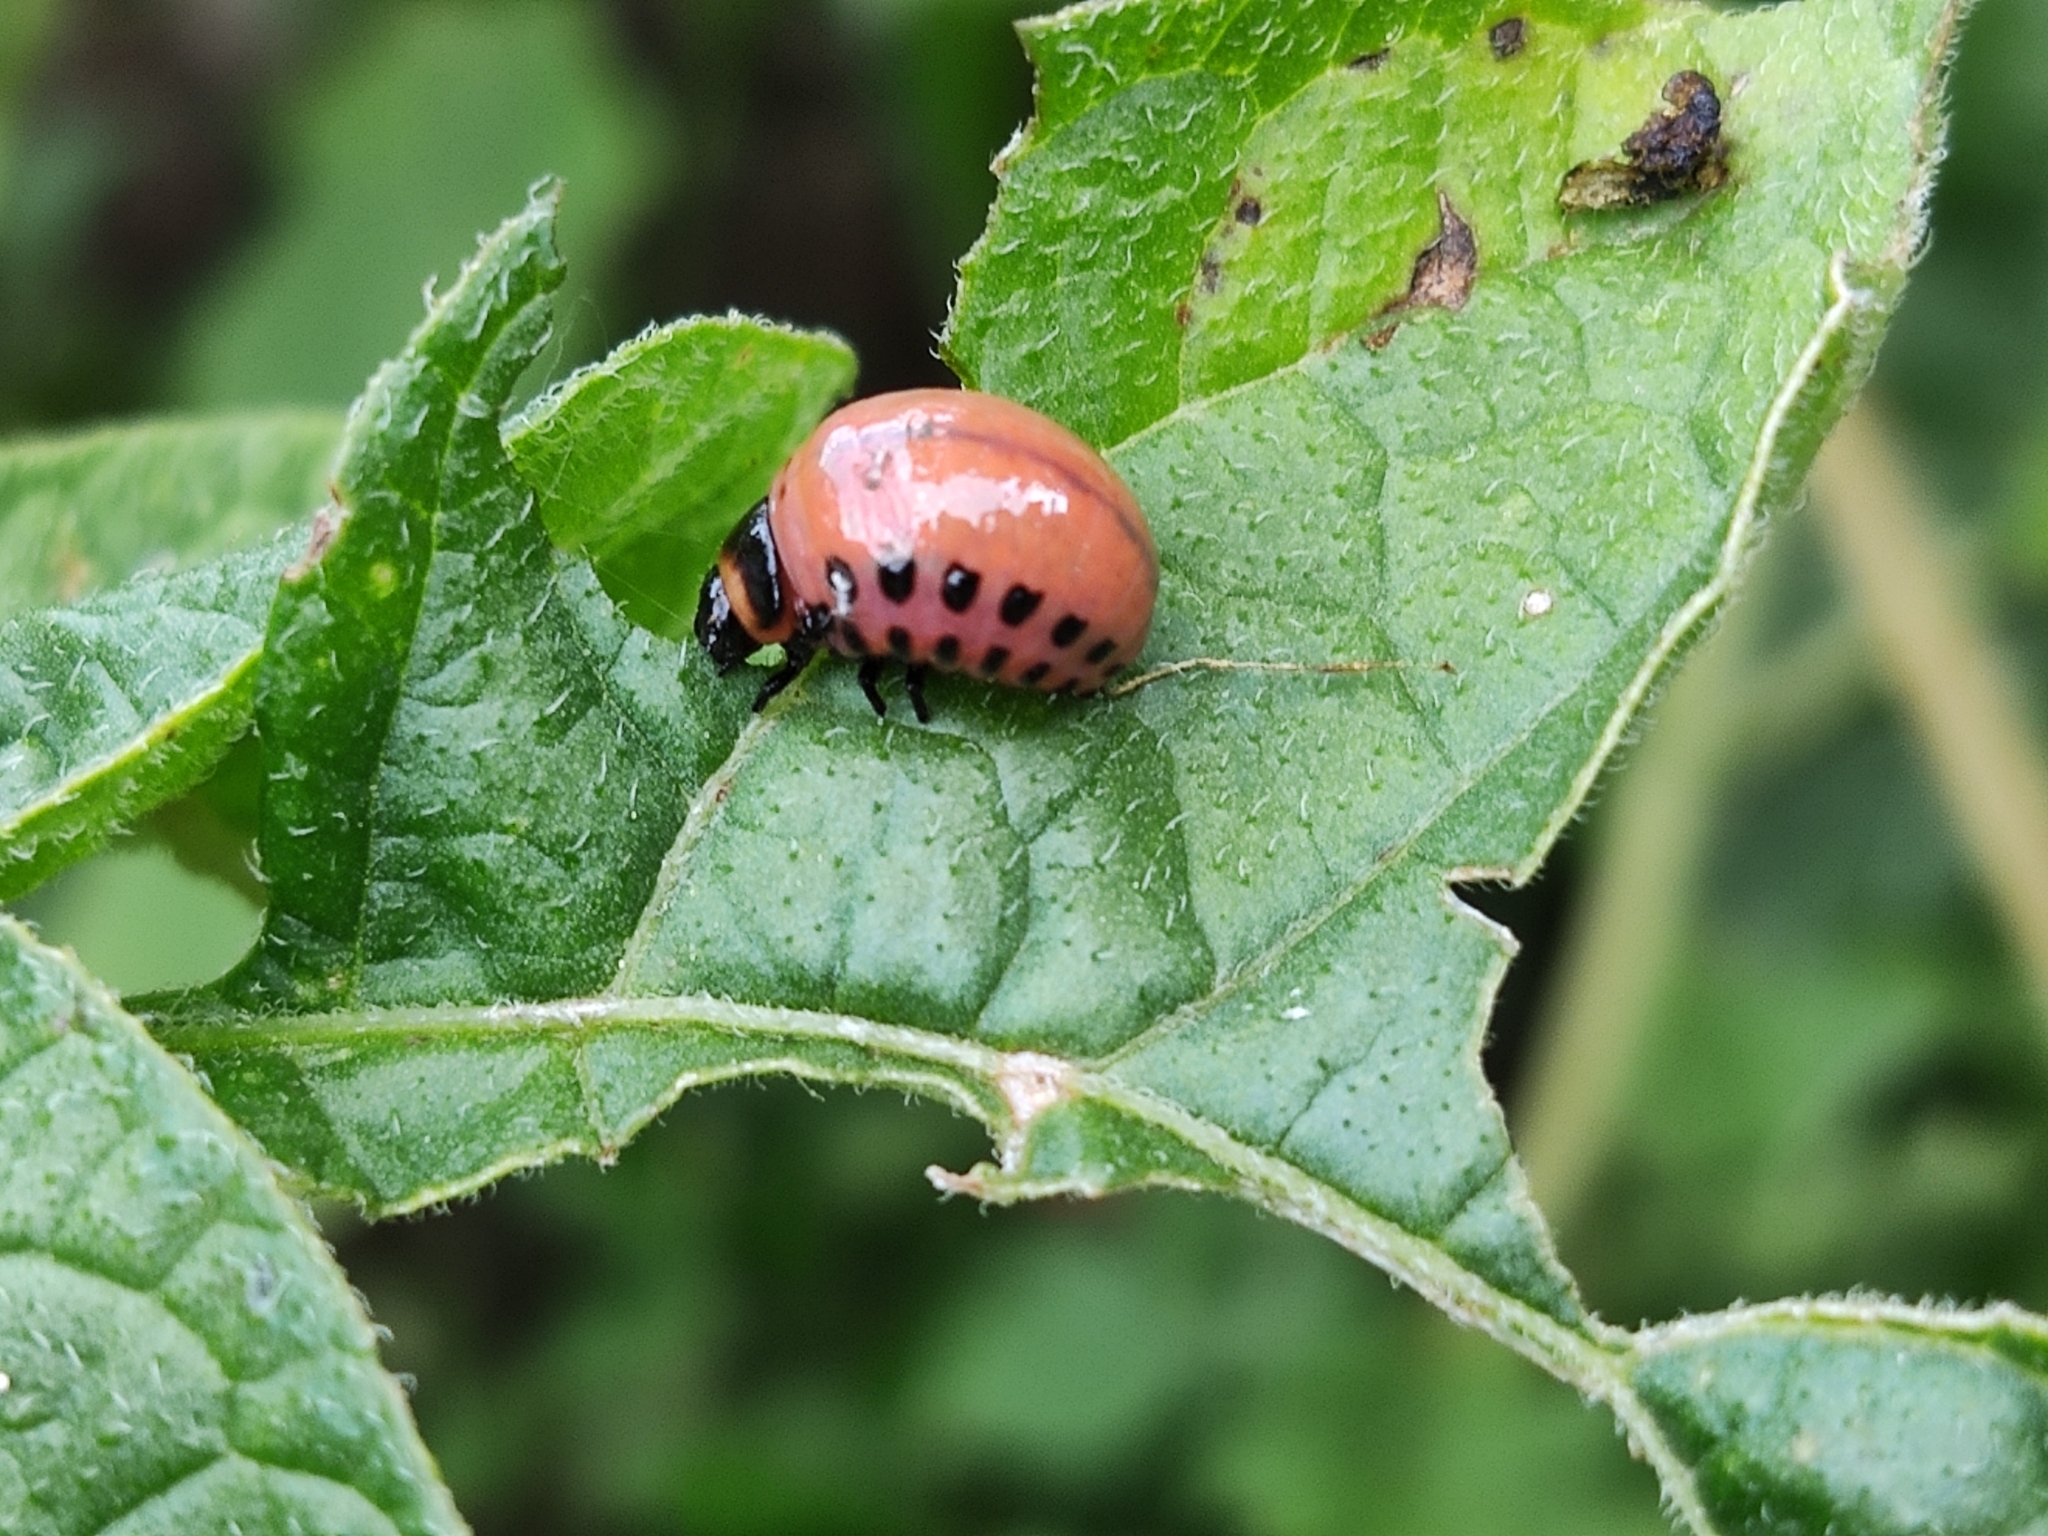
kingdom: Animalia
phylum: Arthropoda
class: Insecta
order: Coleoptera
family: Chrysomelidae
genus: Leptinotarsa
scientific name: Leptinotarsa decemlineata
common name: Colorado potato beetle
